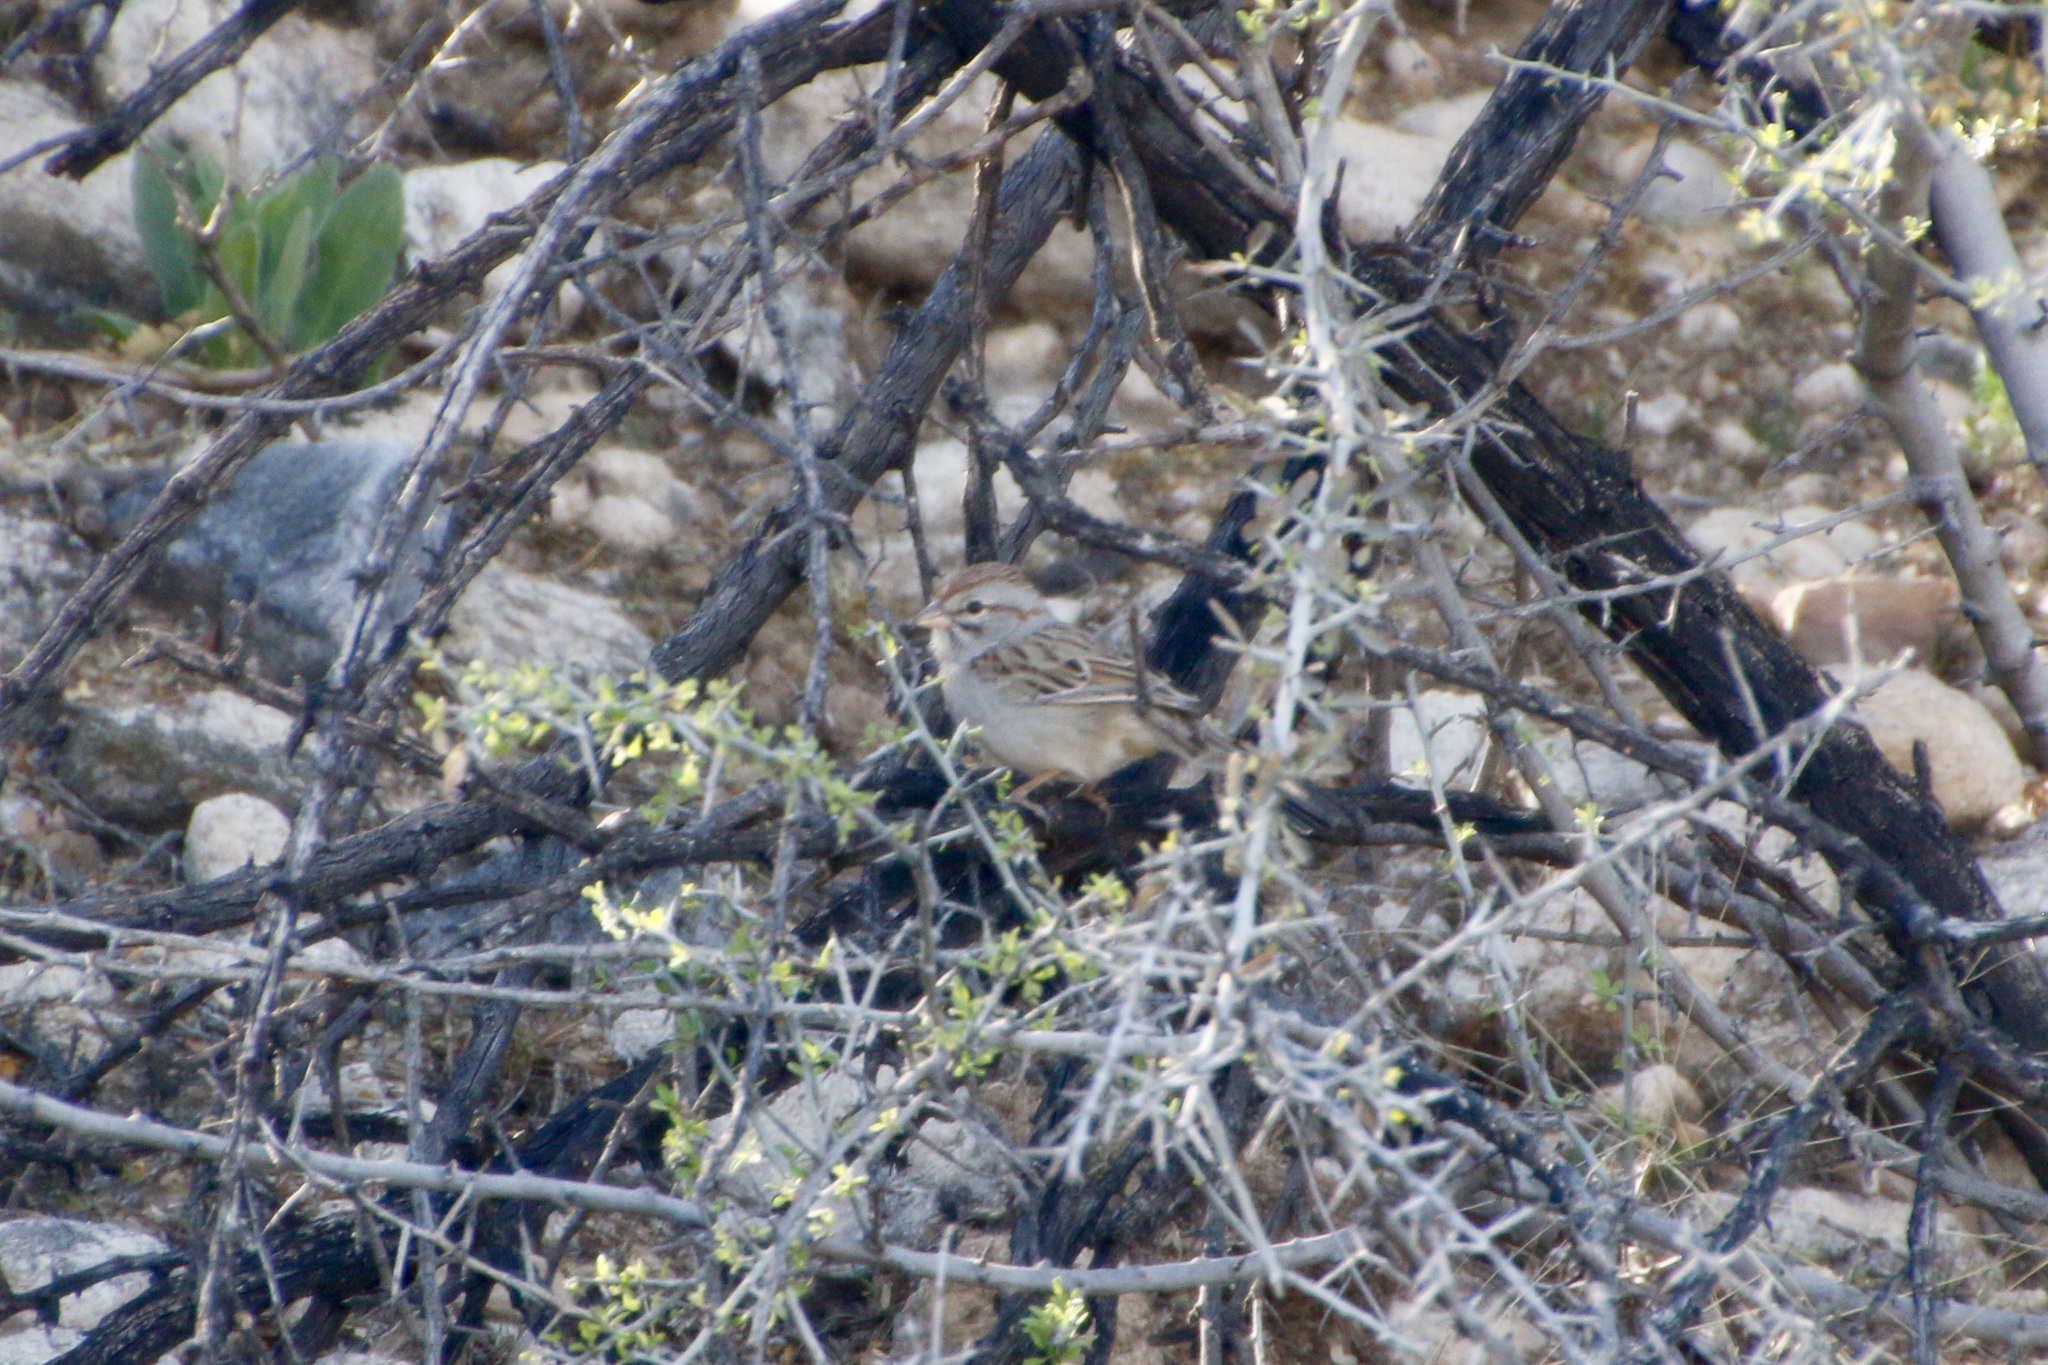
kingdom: Animalia
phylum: Chordata
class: Aves
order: Passeriformes
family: Passerellidae
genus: Peucaea
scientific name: Peucaea carpalis
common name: Rufous-winged sparrow
